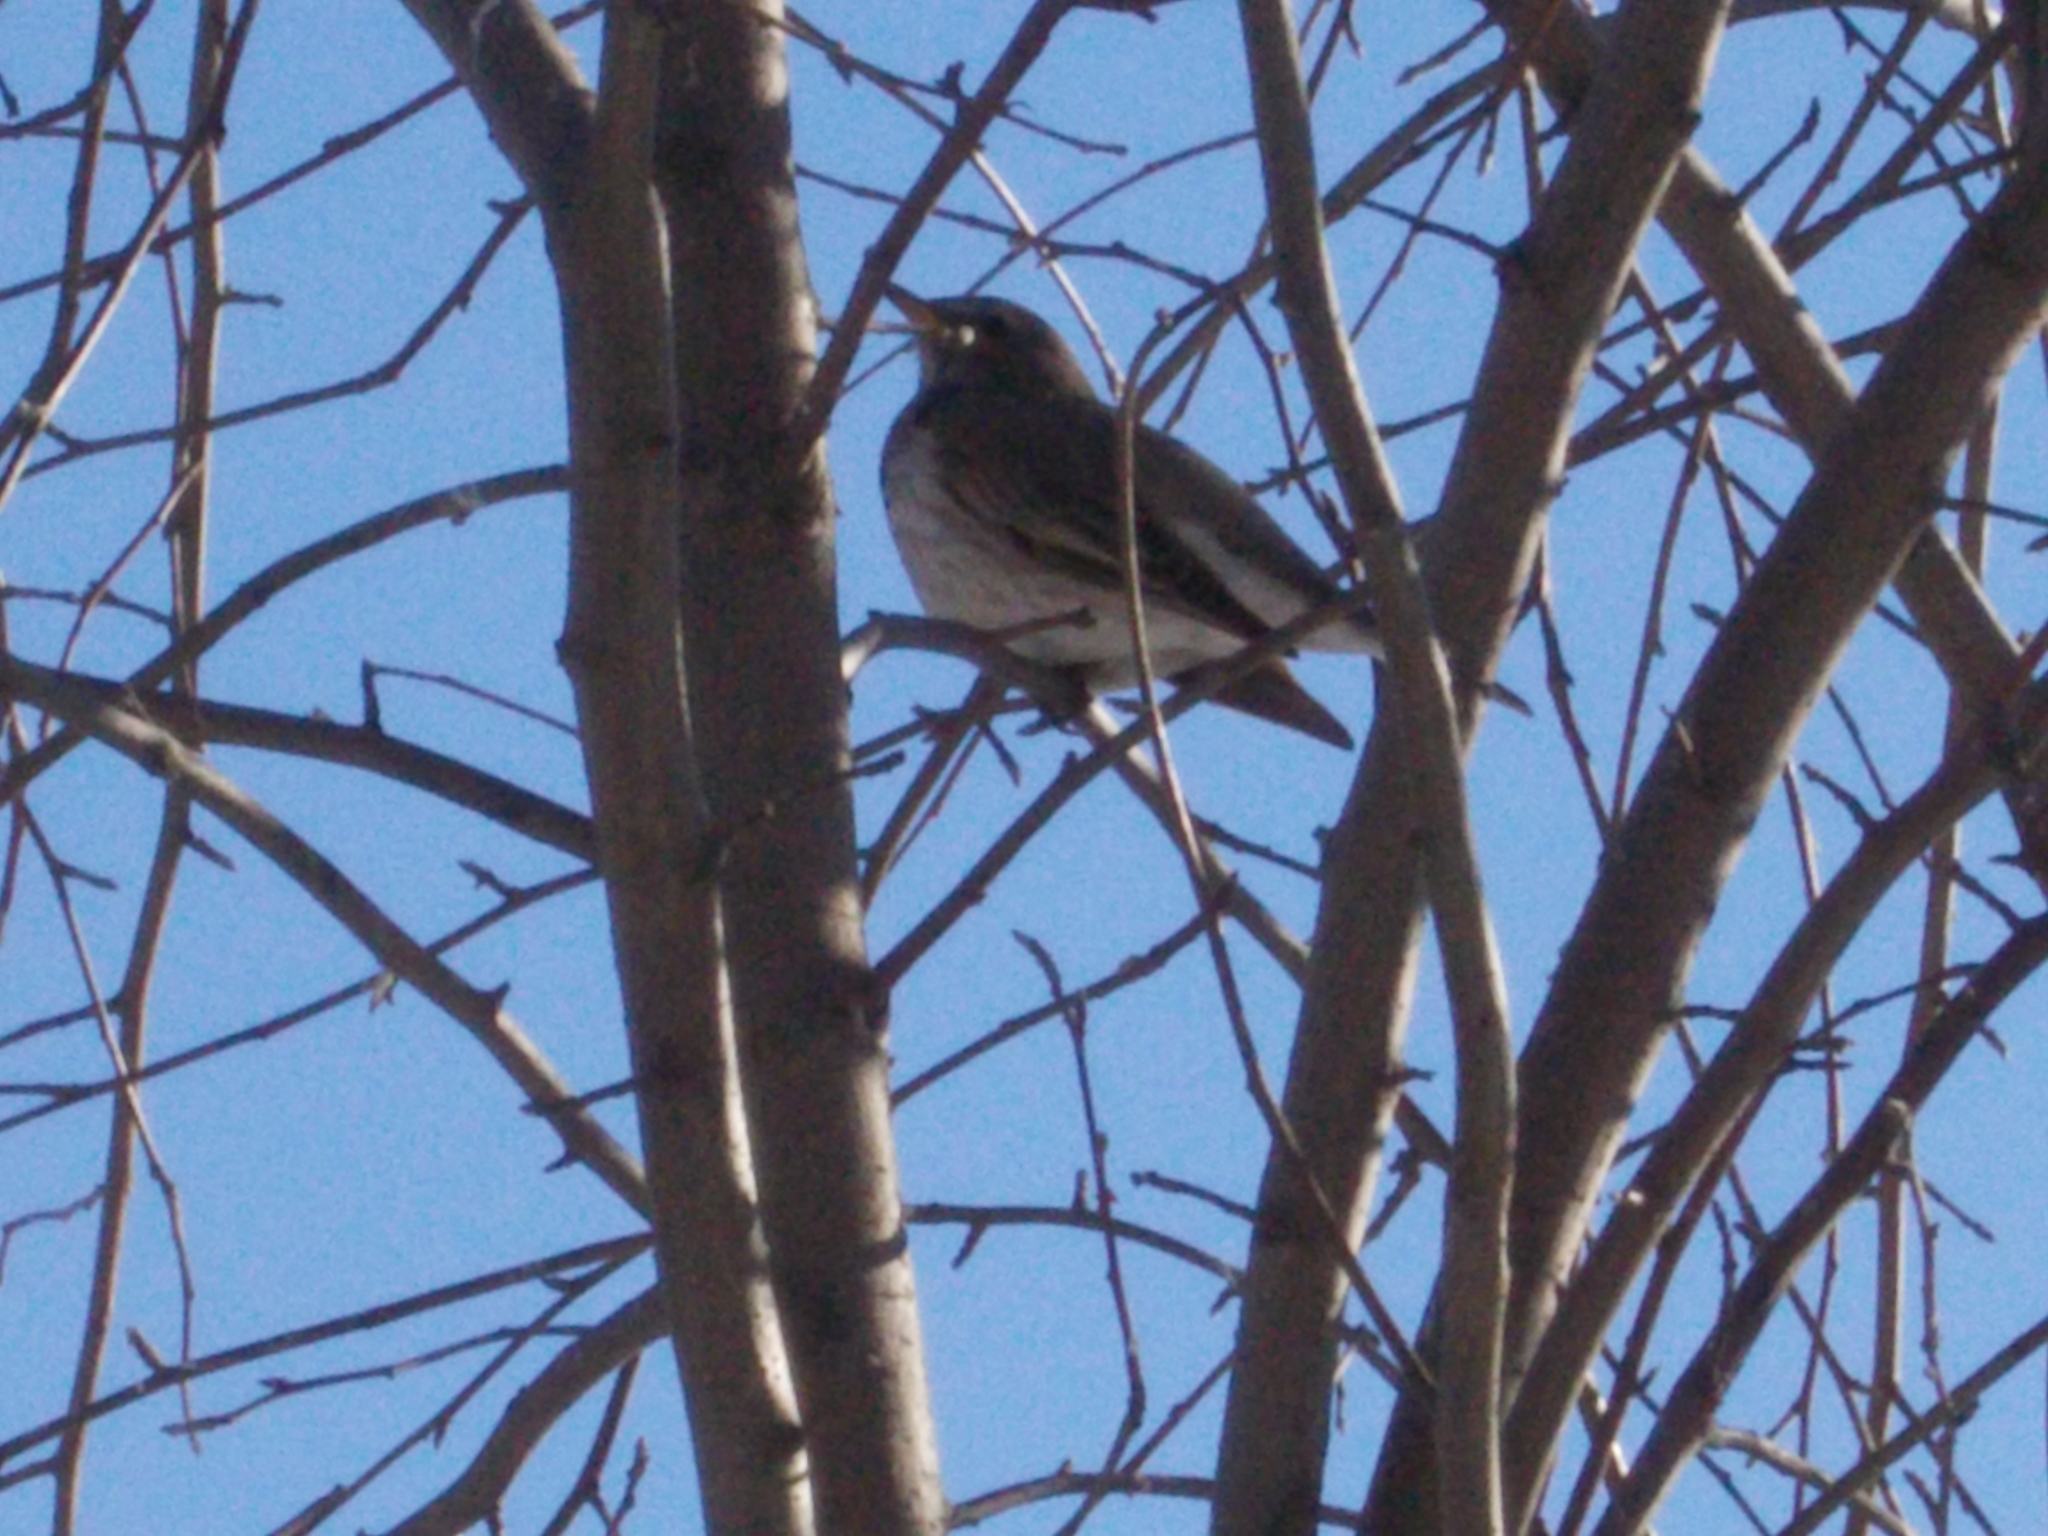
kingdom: Animalia
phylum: Chordata
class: Aves
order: Passeriformes
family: Turdidae
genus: Turdus
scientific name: Turdus atrogularis
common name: Black-throated thrush
